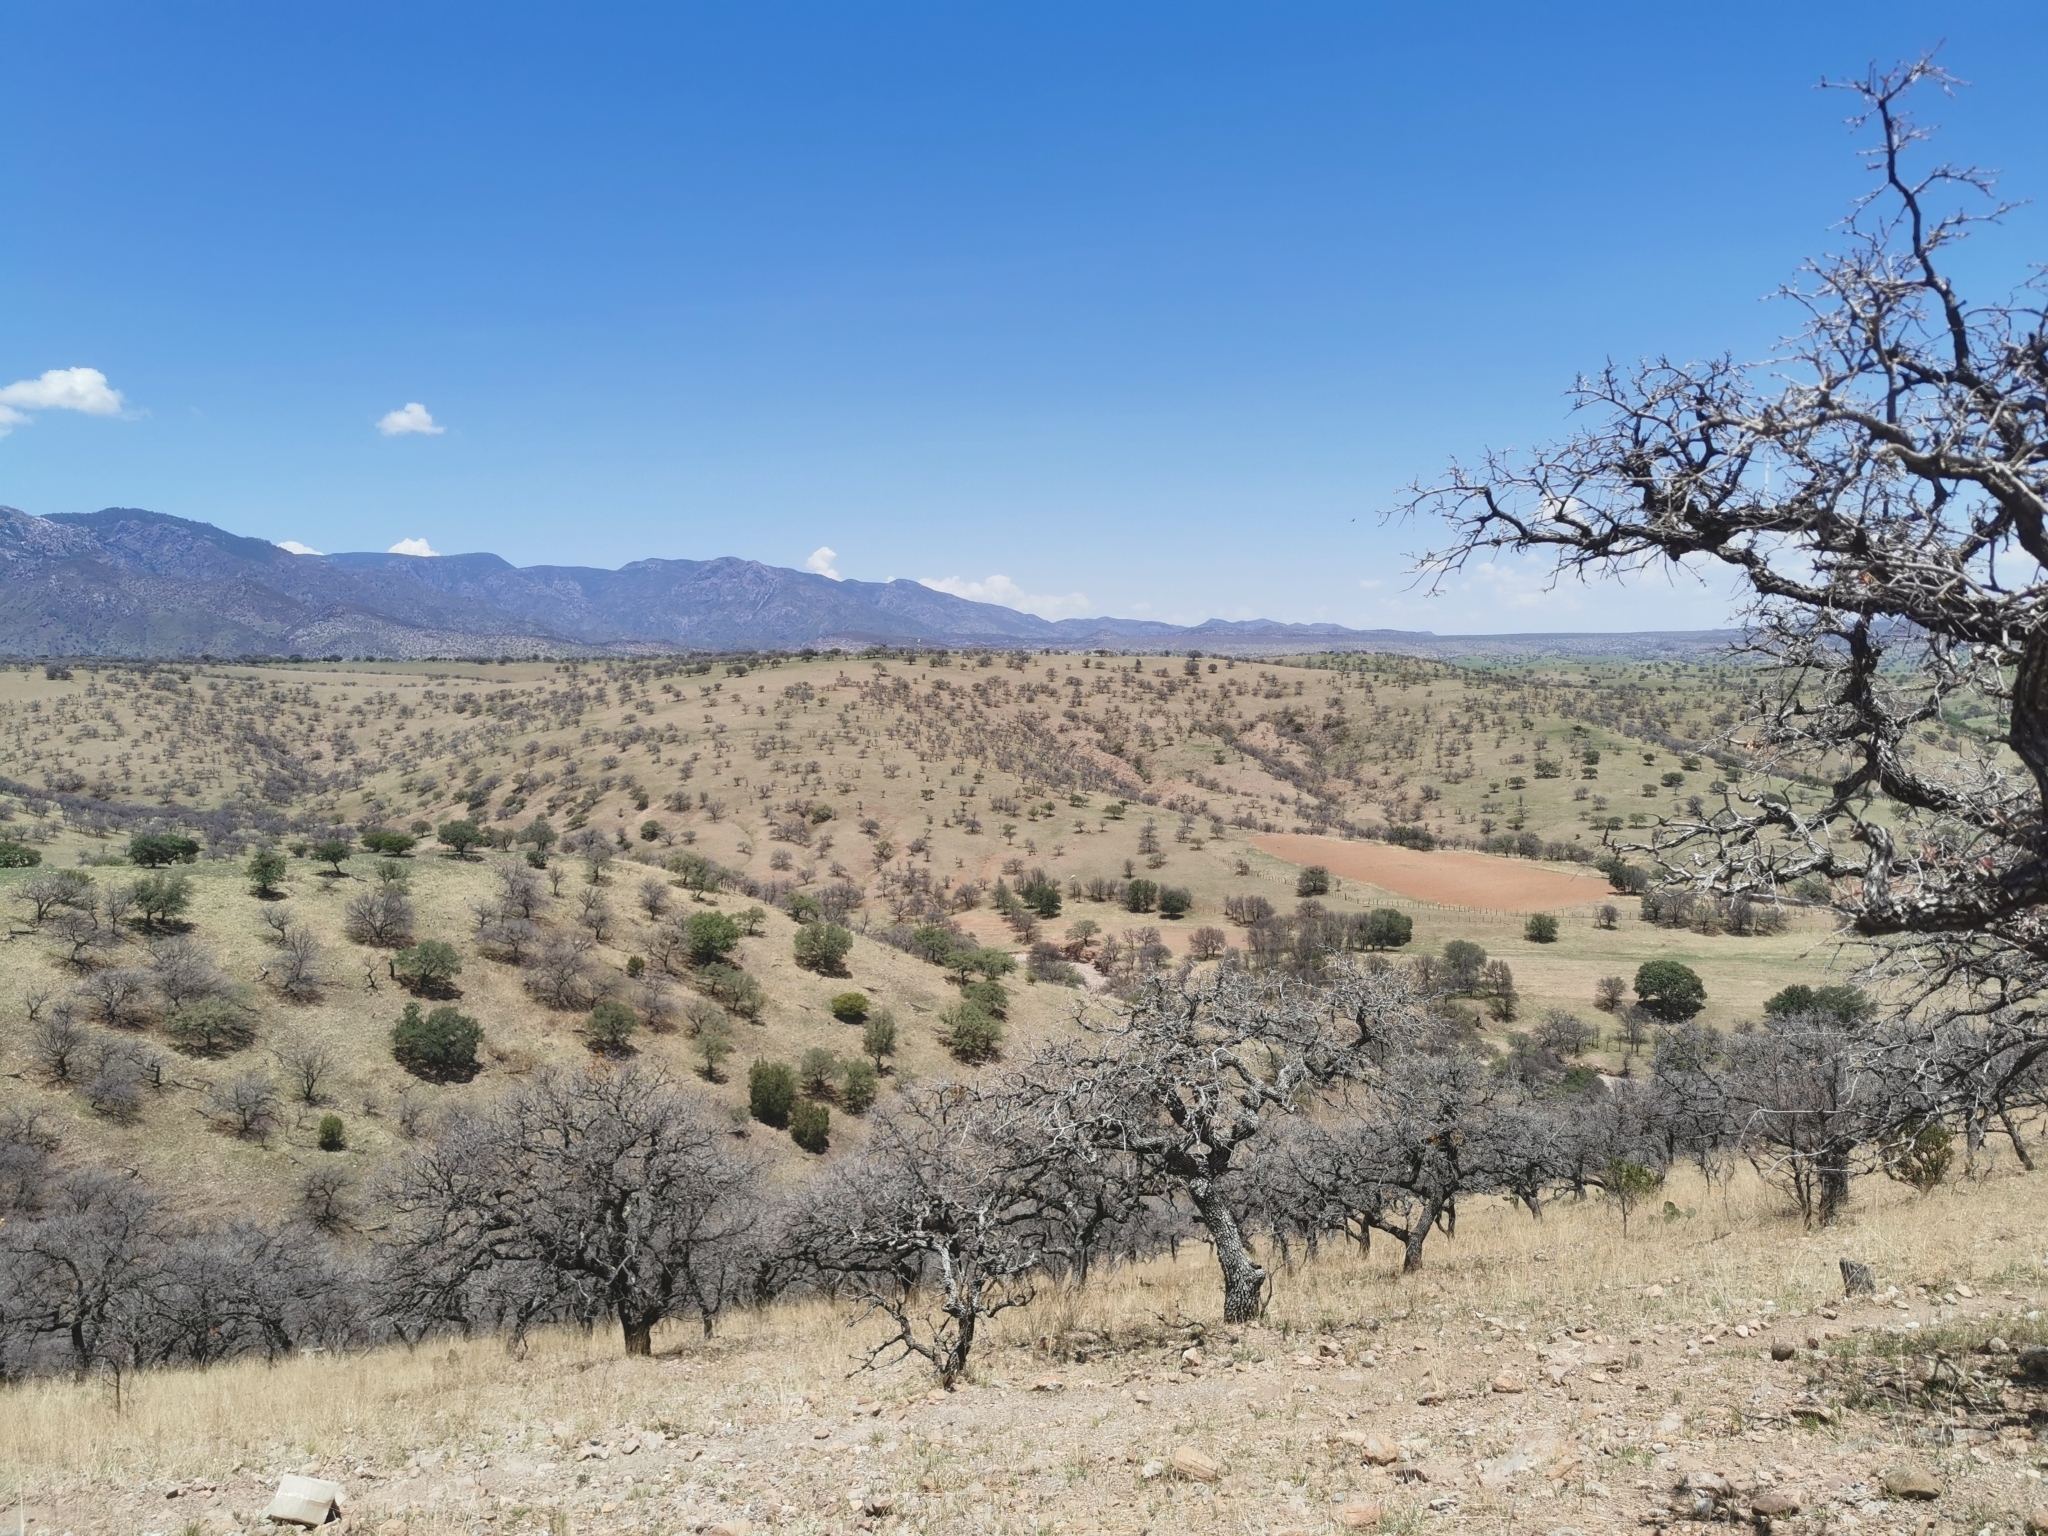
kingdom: Plantae
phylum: Tracheophyta
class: Magnoliopsida
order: Fagales
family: Fagaceae
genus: Quercus
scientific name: Quercus grisea
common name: Gray oak
